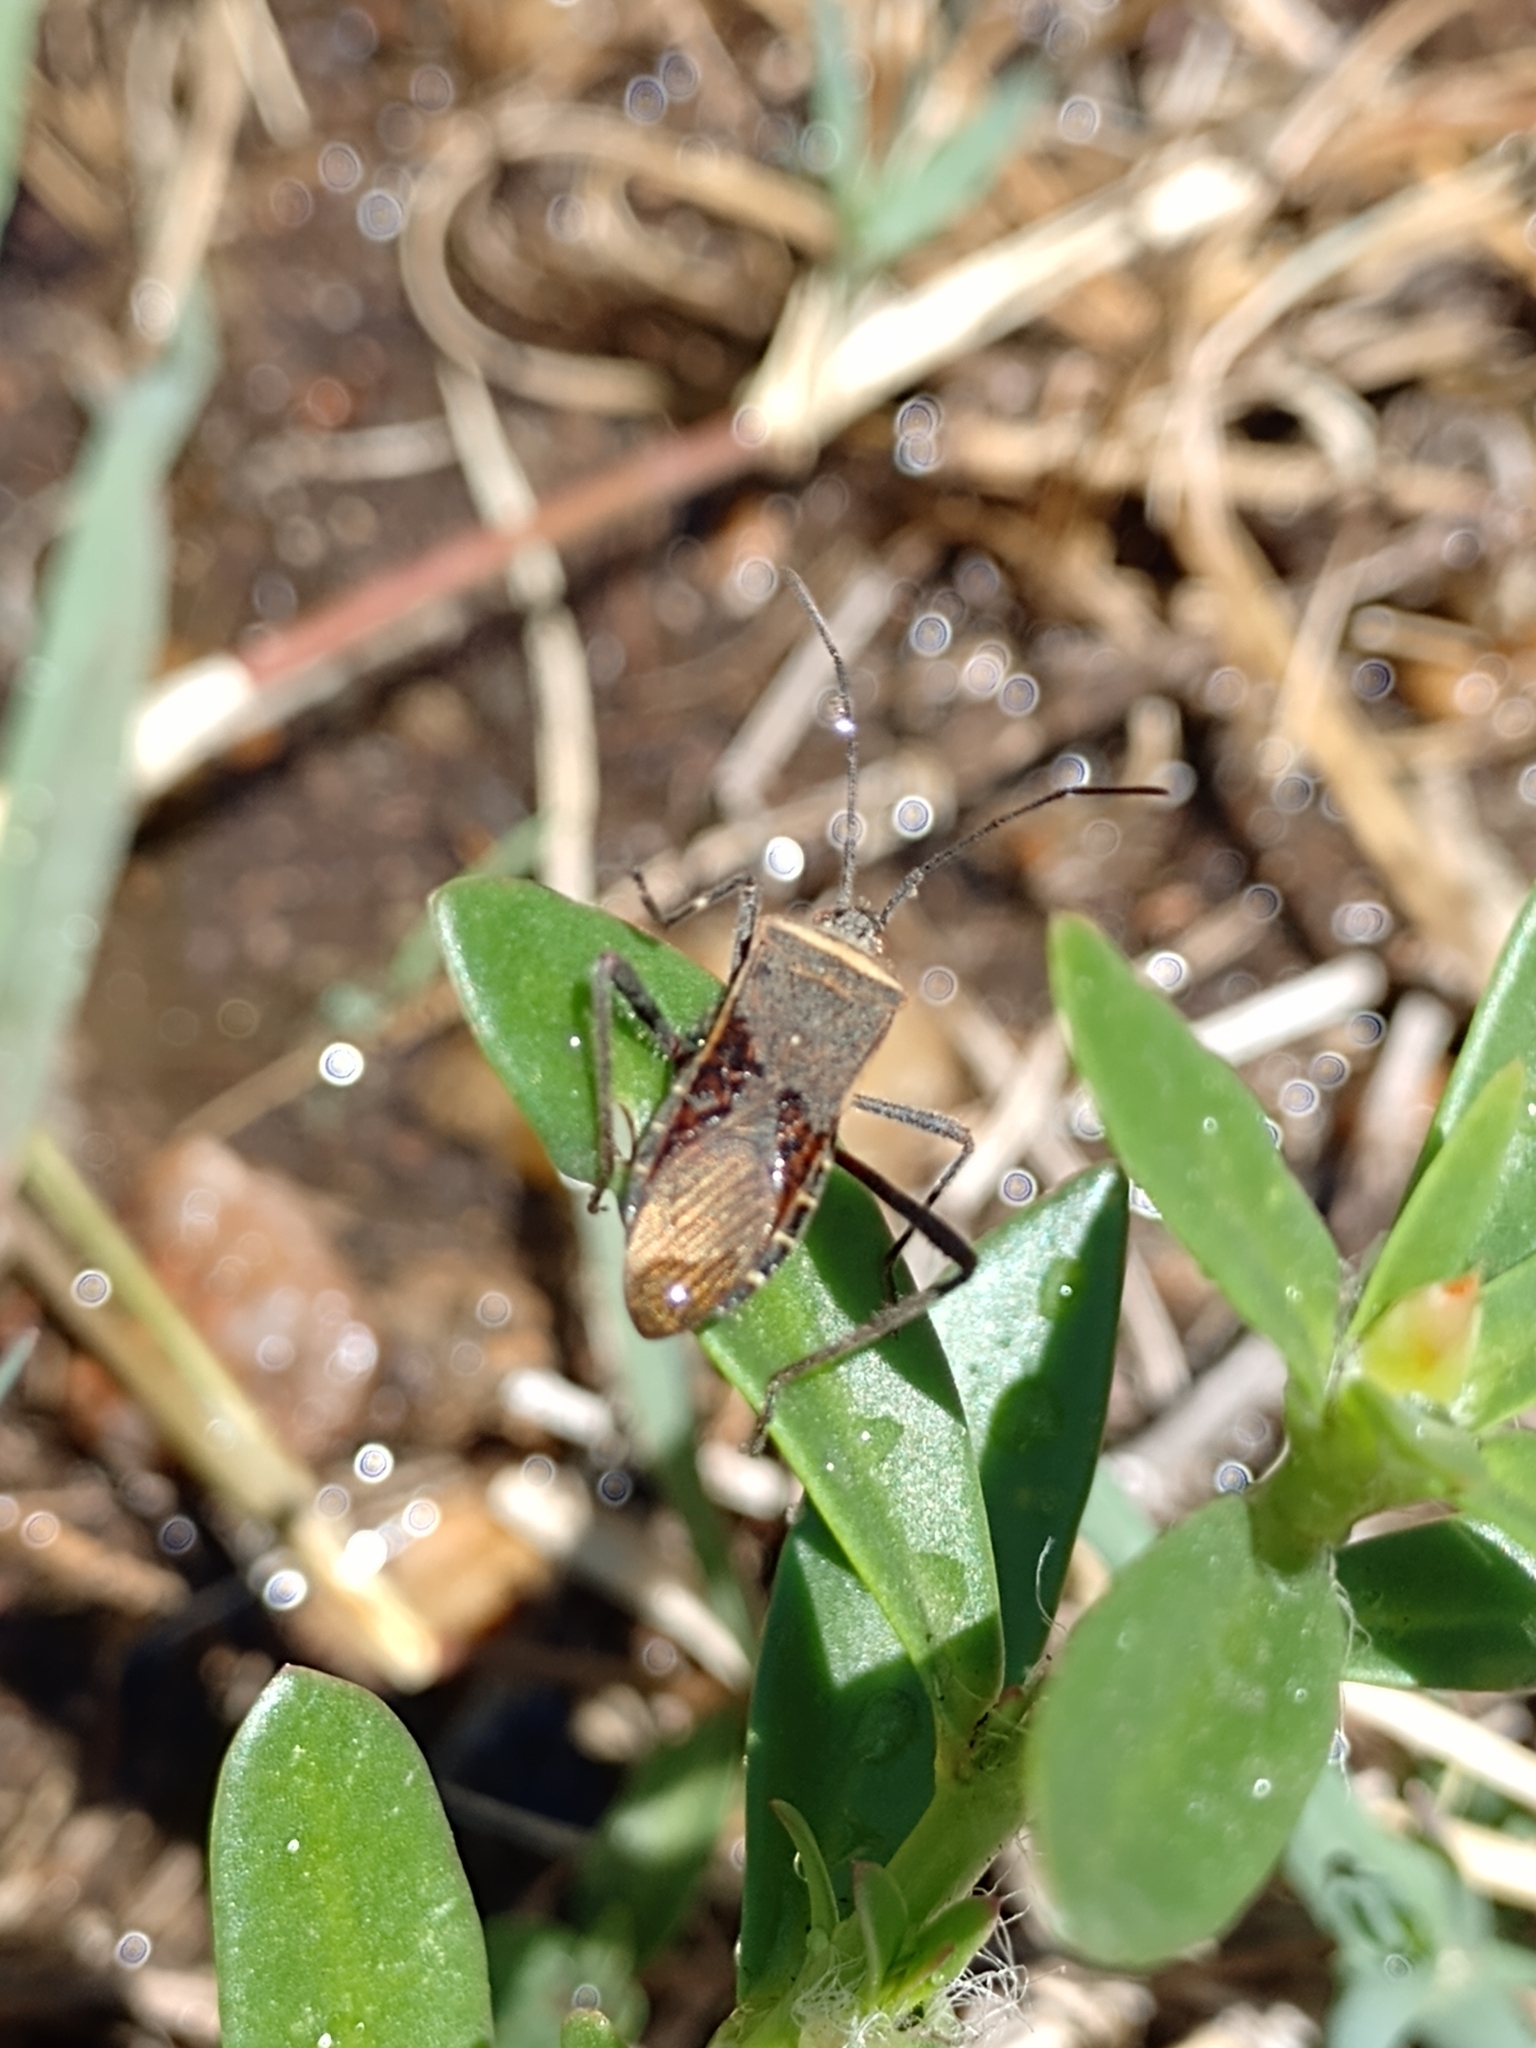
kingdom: Animalia
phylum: Arthropoda
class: Insecta
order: Hemiptera
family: Coreidae
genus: Phthiacnemia
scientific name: Phthiacnemia picta
